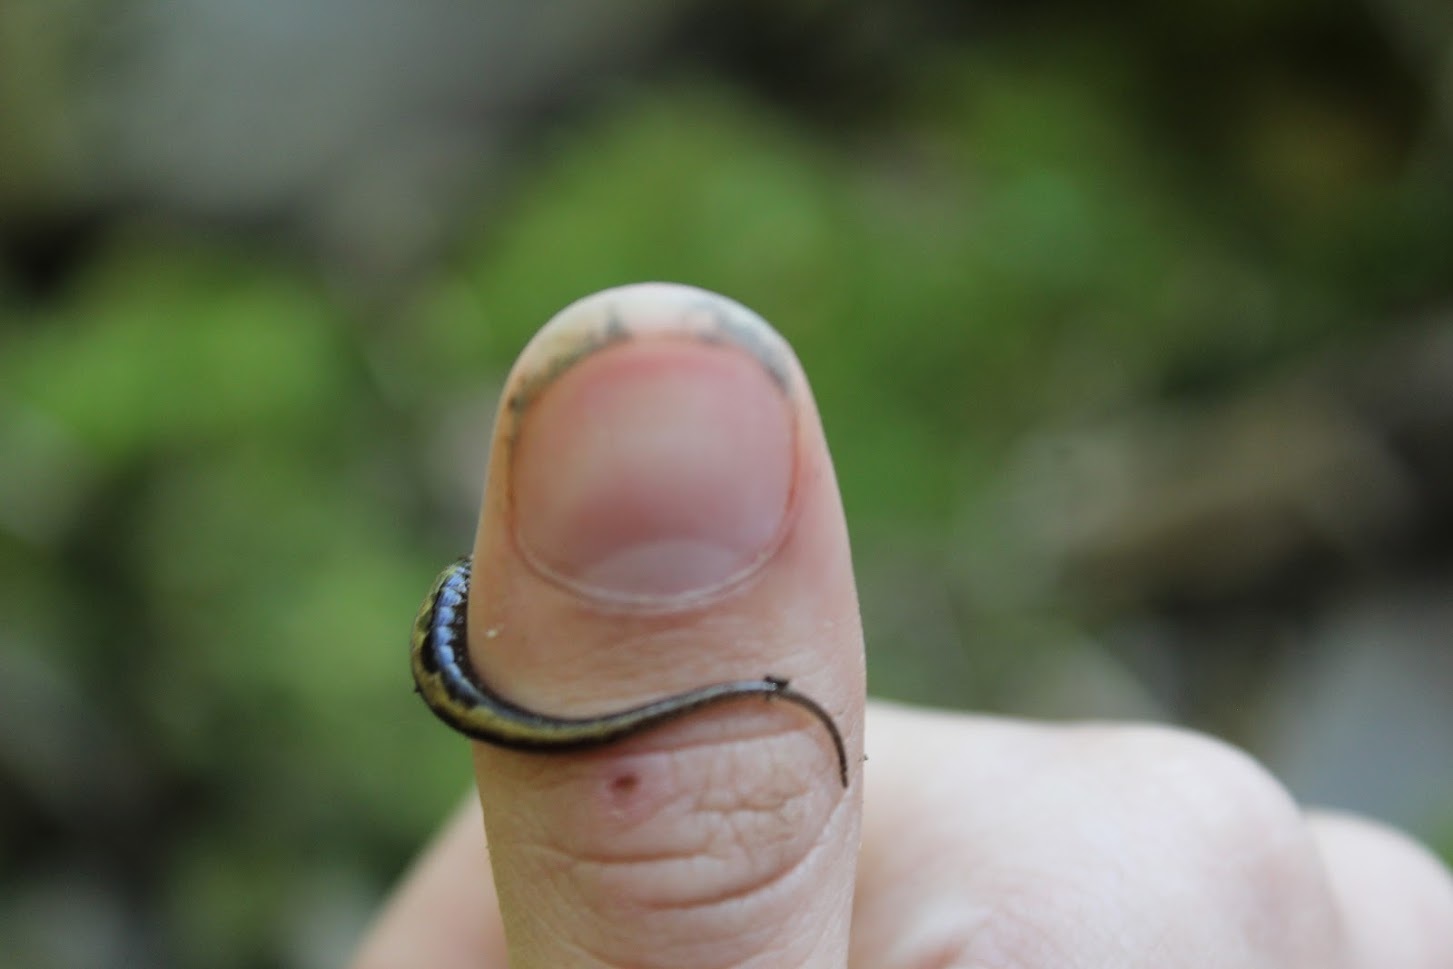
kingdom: Animalia
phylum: Chordata
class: Amphibia
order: Caudata
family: Plethodontidae
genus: Desmognathus
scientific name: Desmognathus ocoee
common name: Ocoee salamander
